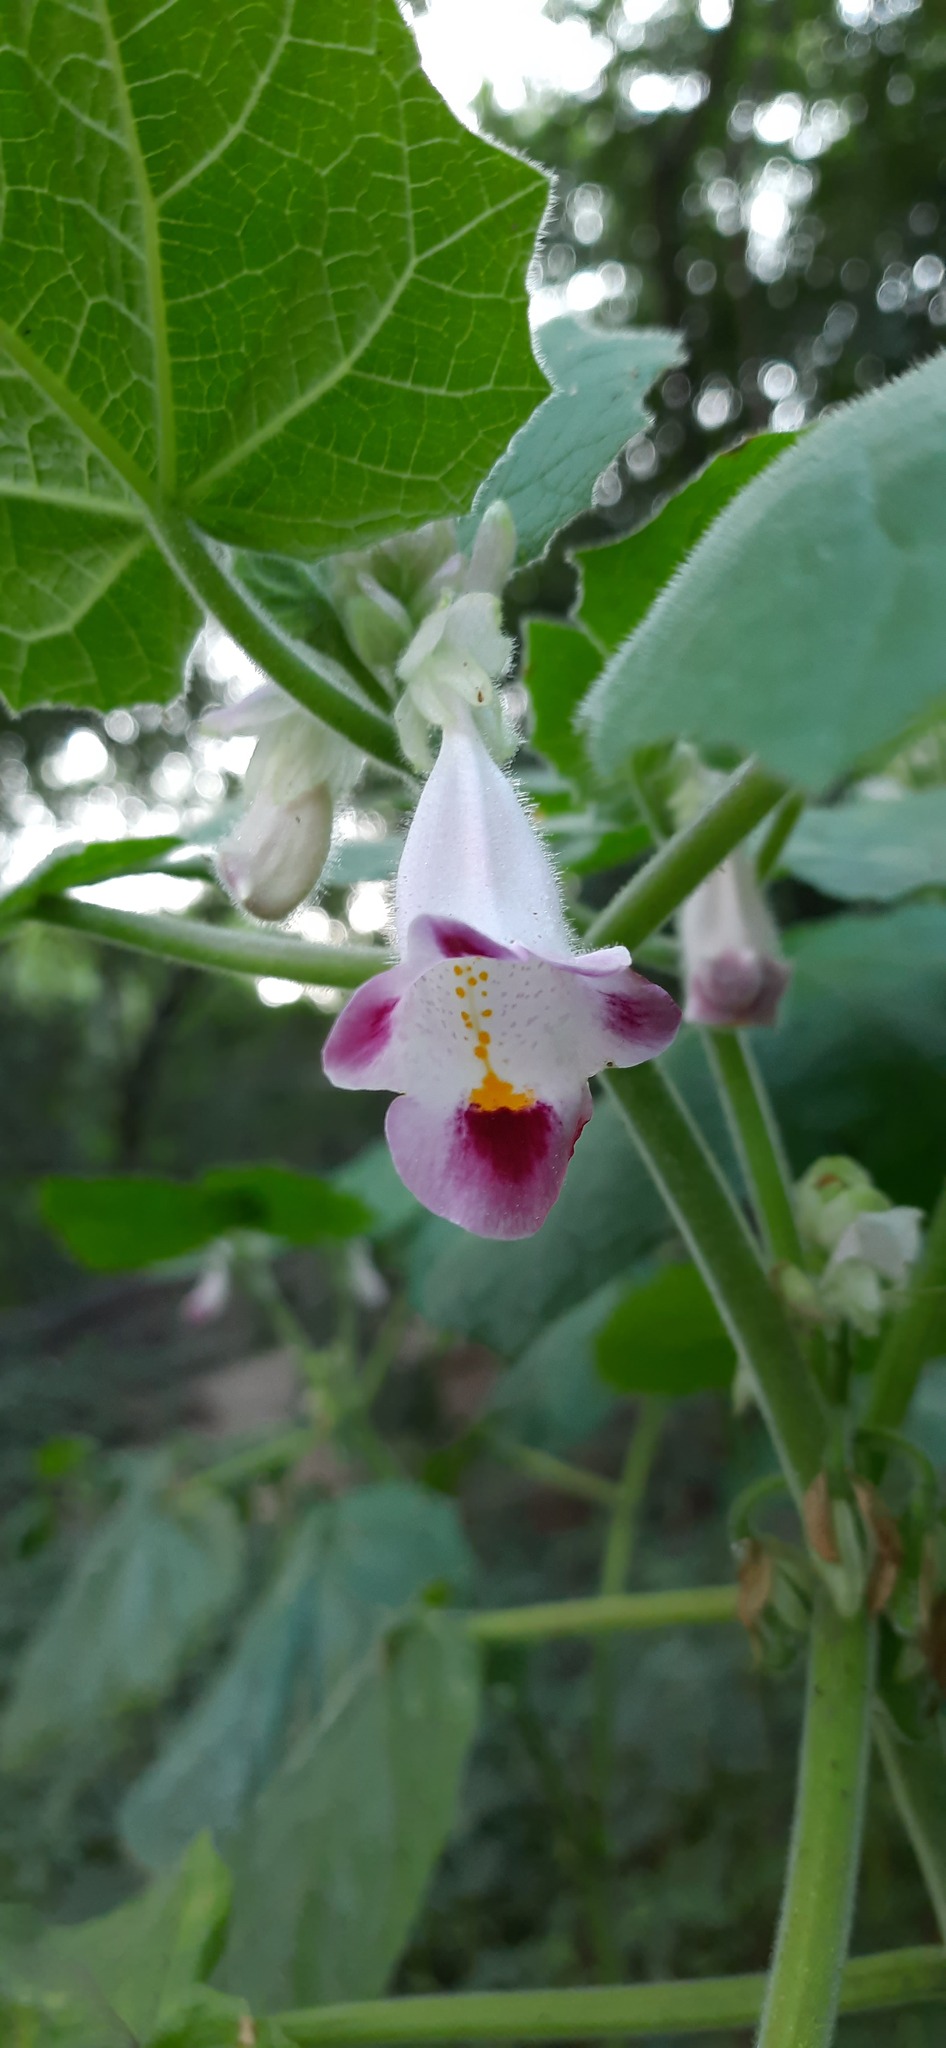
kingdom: Plantae
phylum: Tracheophyta
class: Magnoliopsida
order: Lamiales
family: Martyniaceae
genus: Martynia
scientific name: Martynia annua
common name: Tiger's-claw
